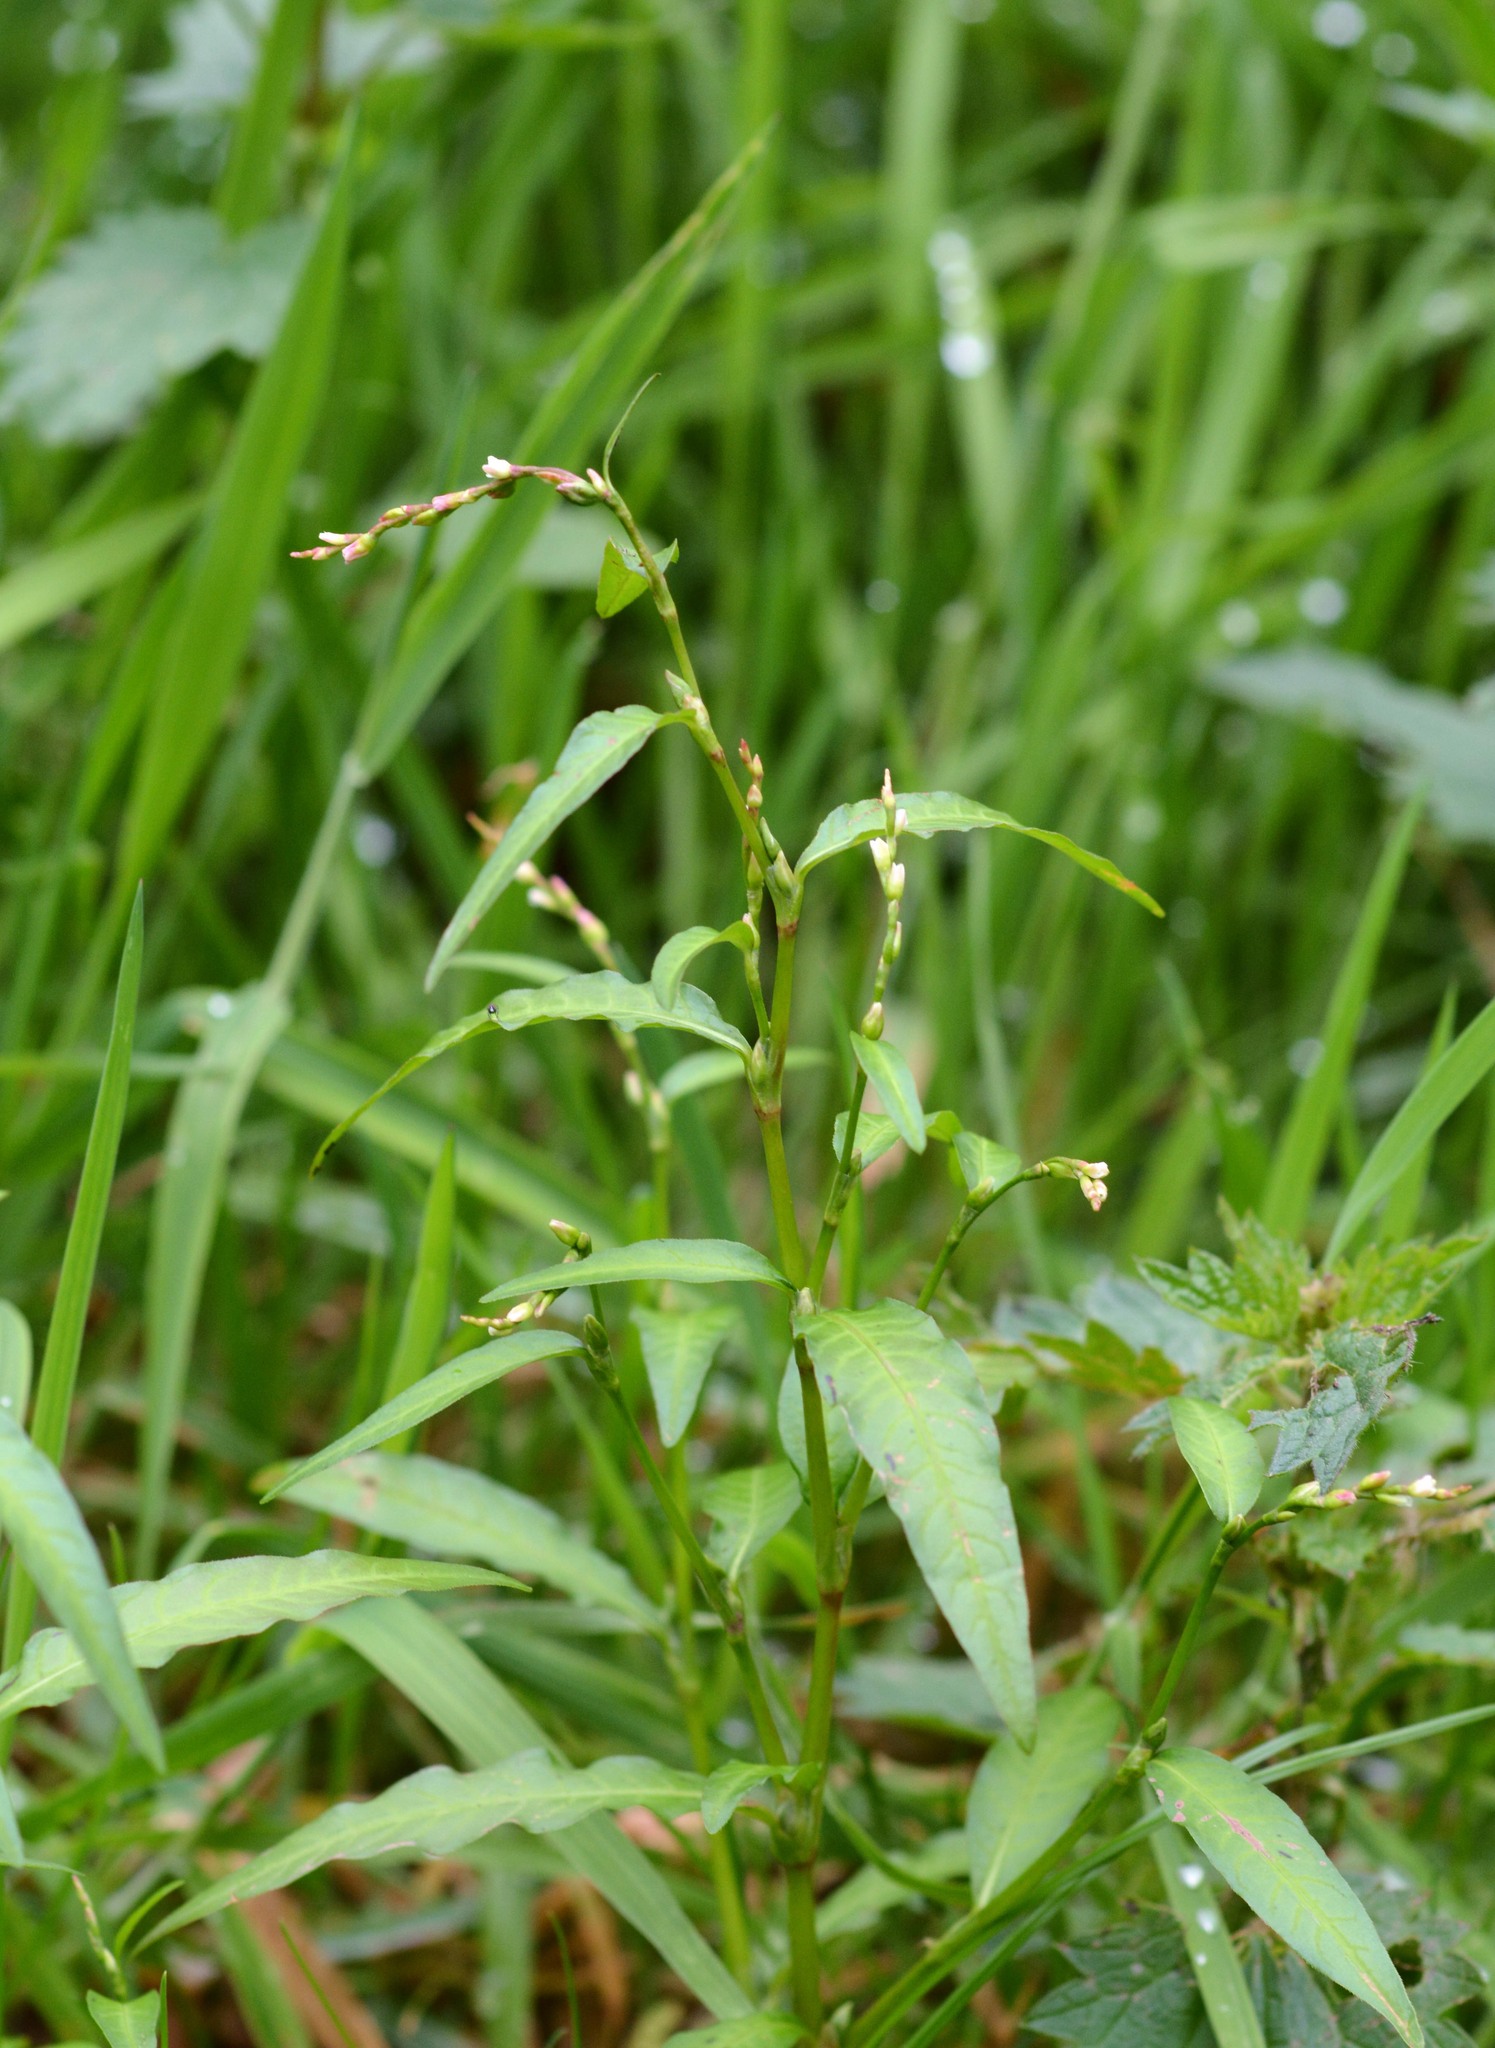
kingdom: Plantae
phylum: Tracheophyta
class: Magnoliopsida
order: Caryophyllales
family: Polygonaceae
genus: Persicaria
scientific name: Persicaria hydropiper
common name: Water-pepper
